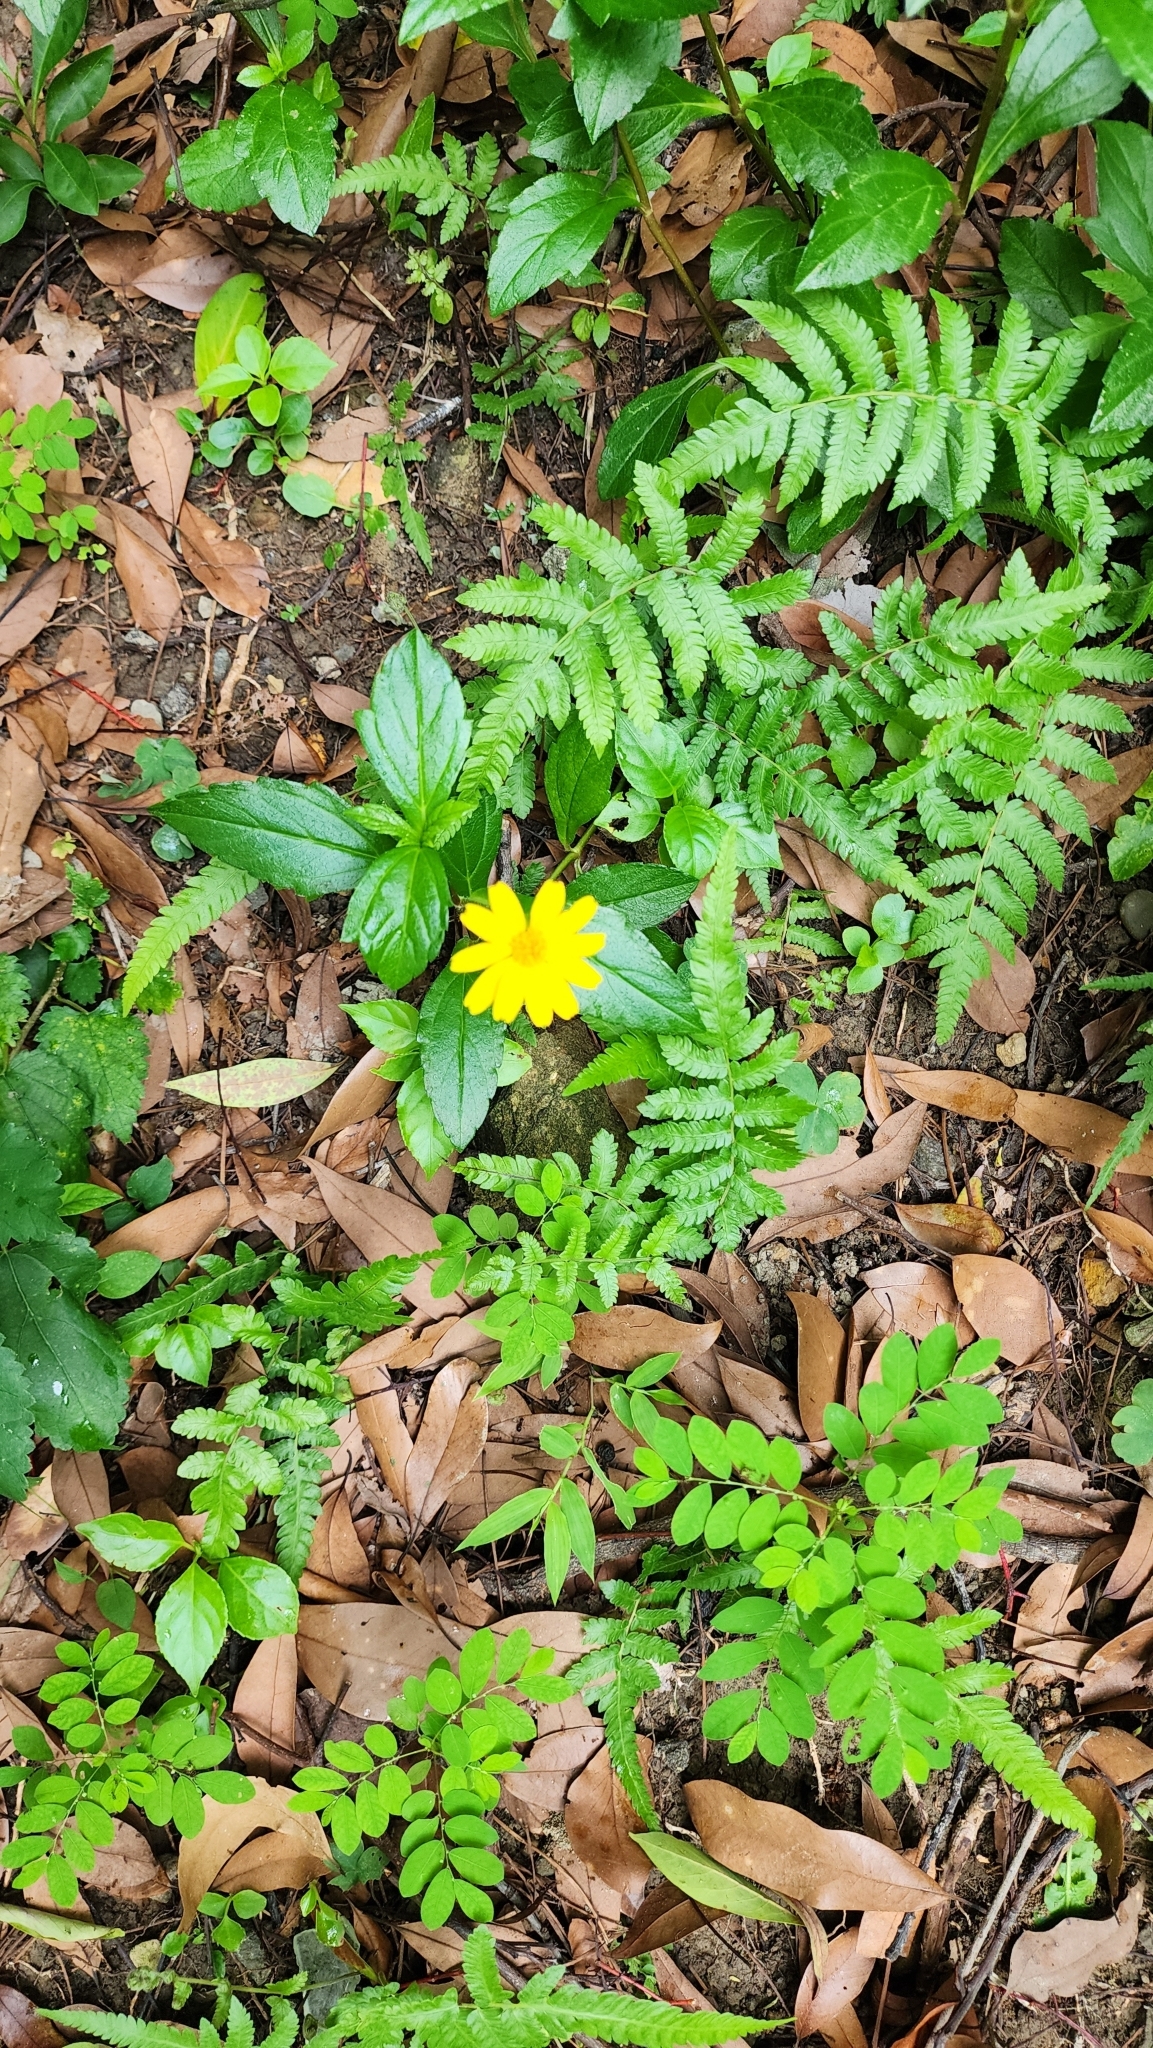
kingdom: Plantae
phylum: Tracheophyta
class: Magnoliopsida
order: Asterales
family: Asteraceae
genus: Sphagneticola
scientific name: Sphagneticola trilobata
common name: Bay biscayne creeping-oxeye
